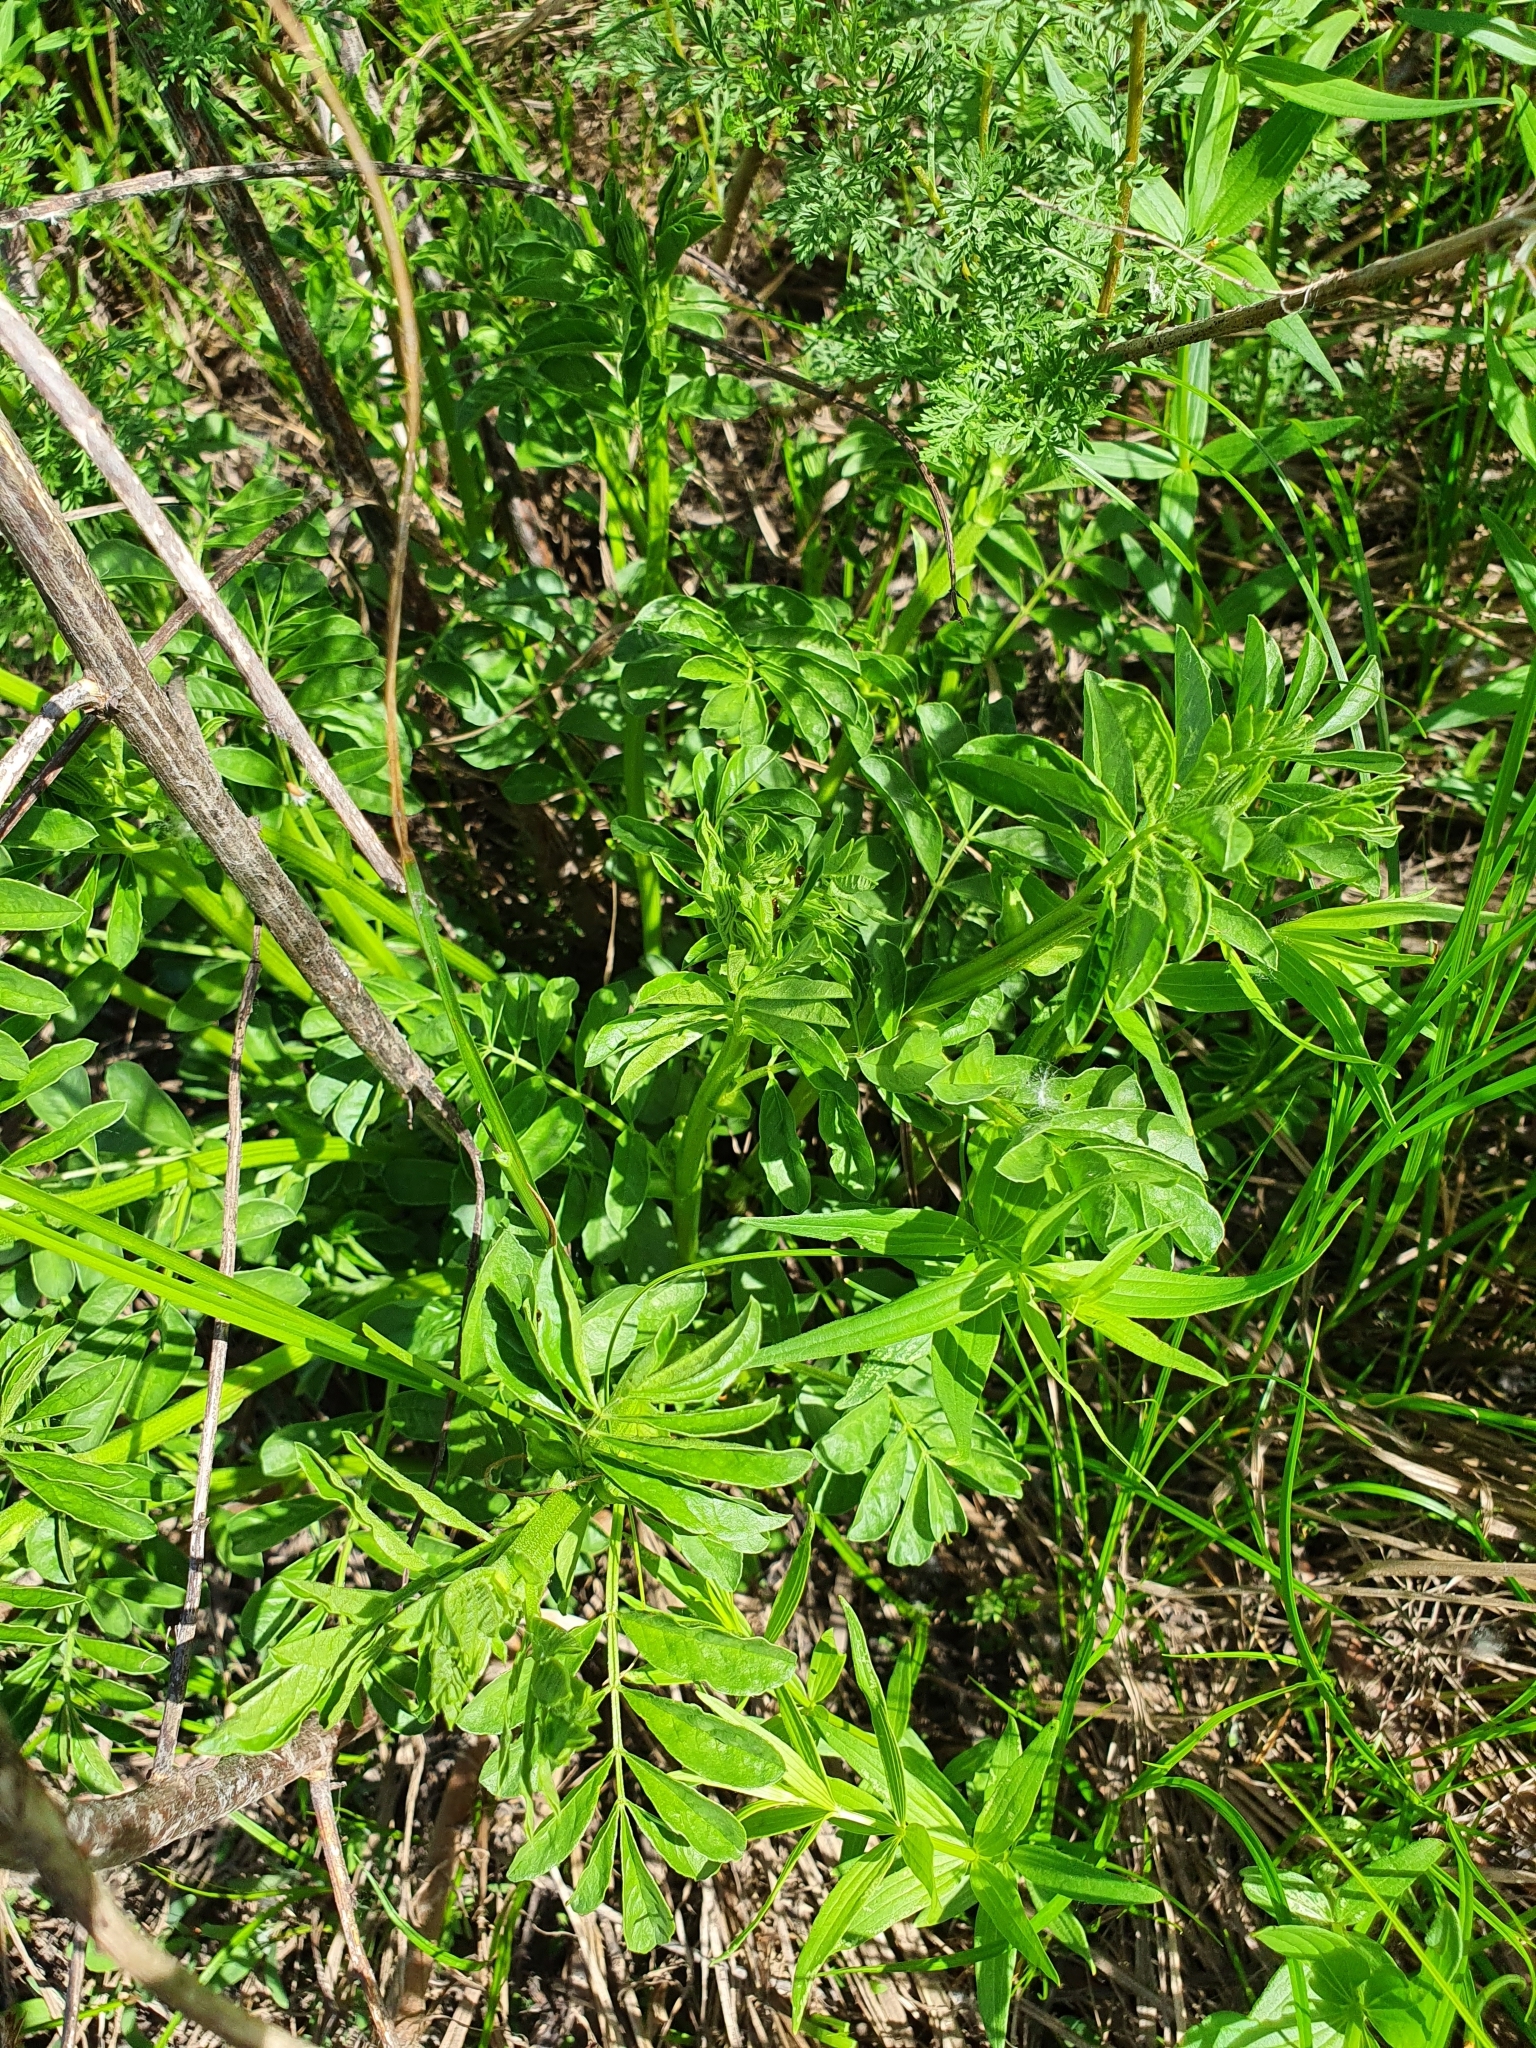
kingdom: Plantae
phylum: Tracheophyta
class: Magnoliopsida
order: Fabales
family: Fabaceae
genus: Glycyrrhiza
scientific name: Glycyrrhiza echinata
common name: German liquorice
